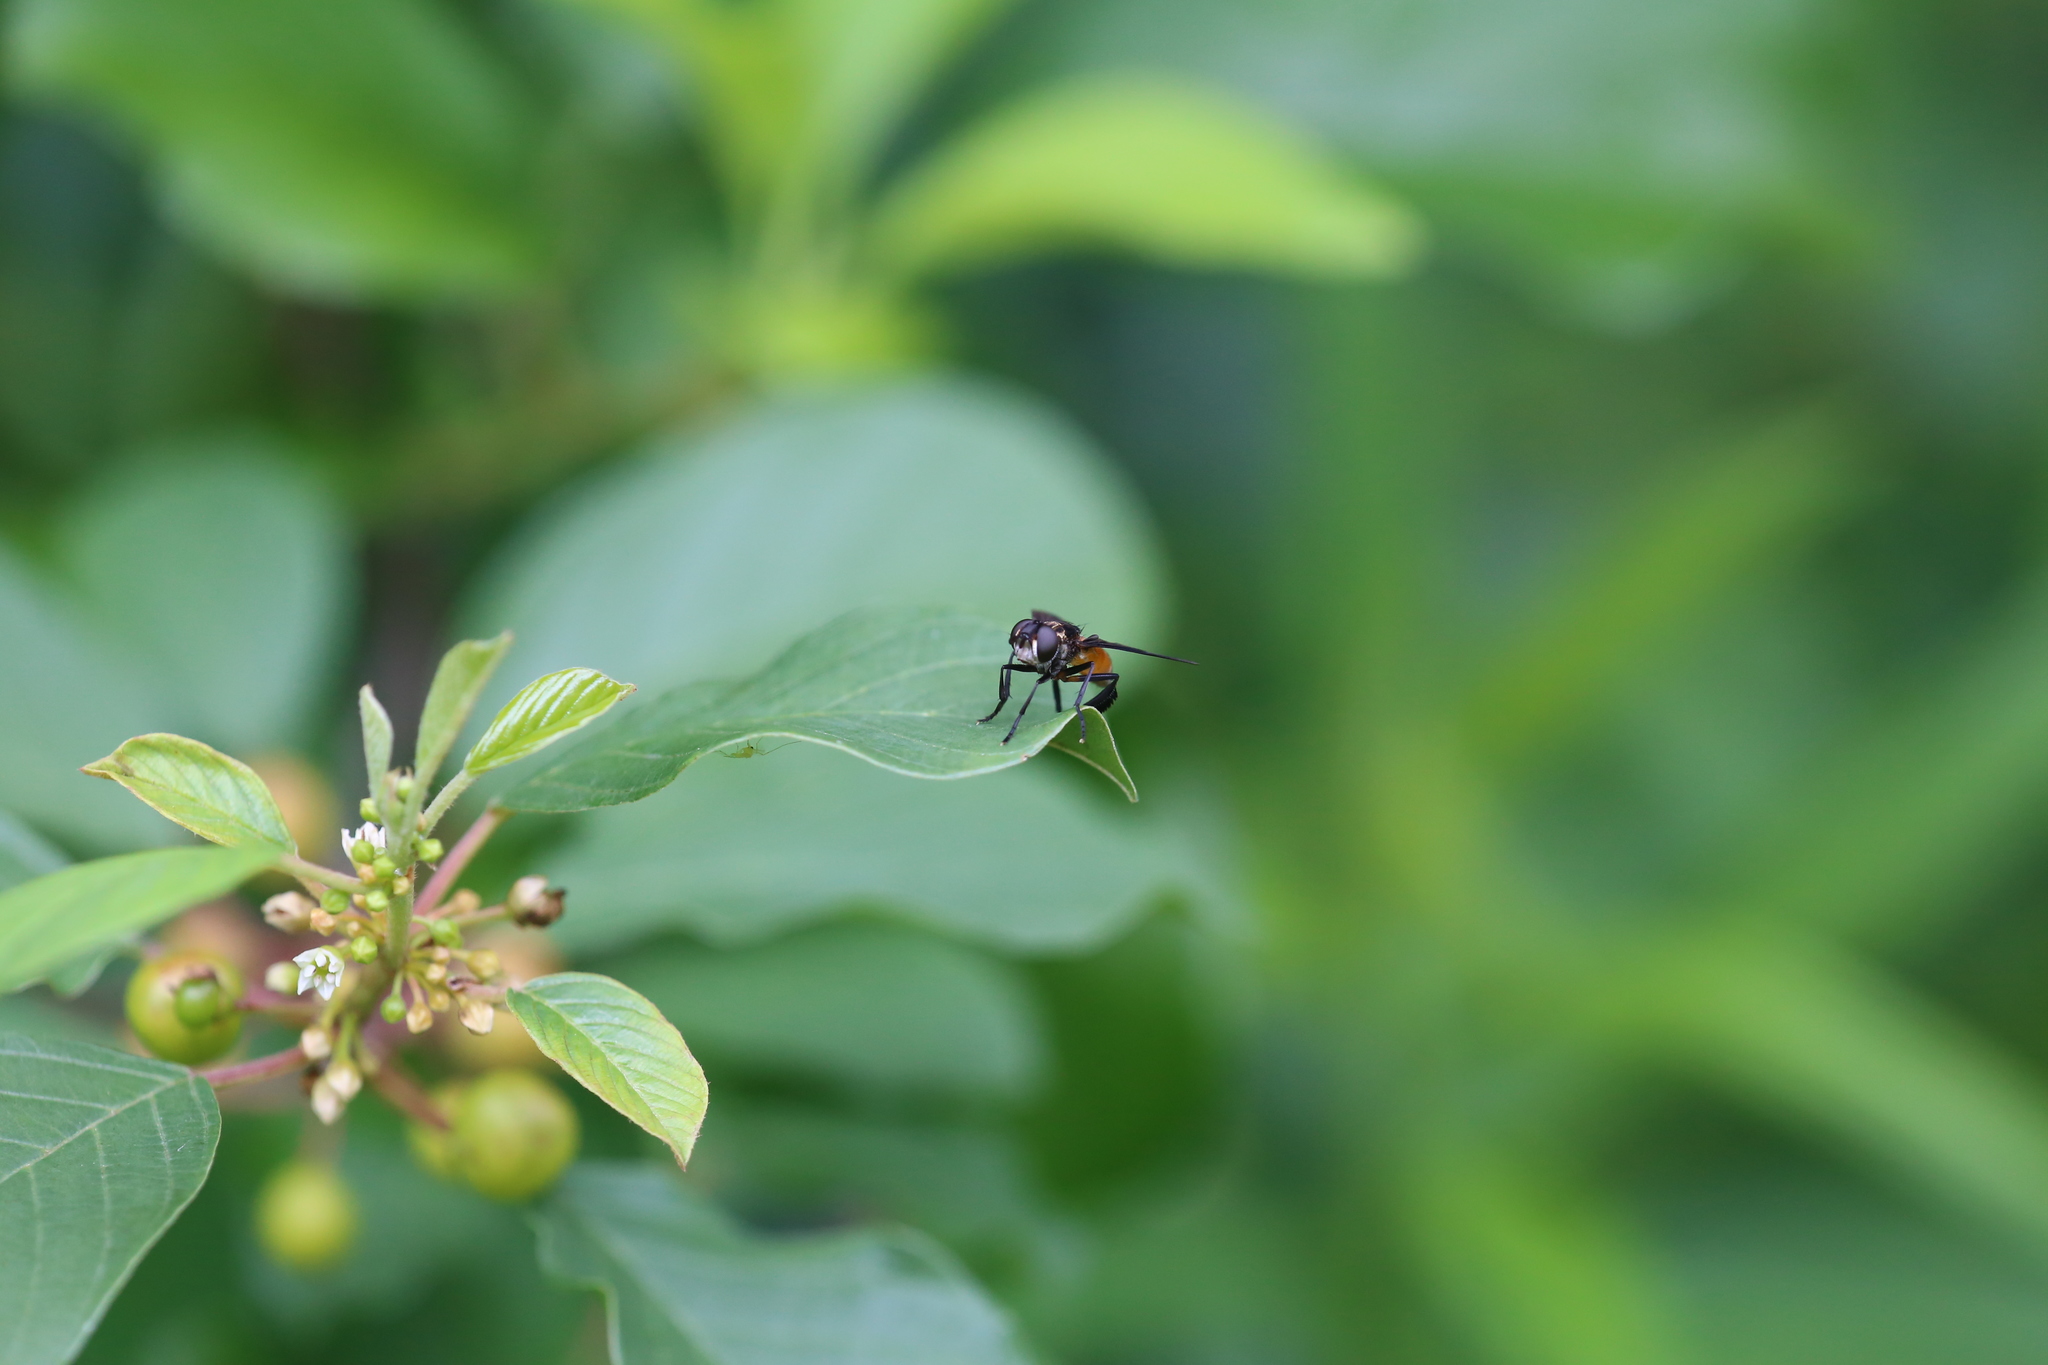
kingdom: Animalia
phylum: Arthropoda
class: Insecta
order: Diptera
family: Tachinidae
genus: Trichopoda
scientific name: Trichopoda pennipes
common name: Tachinid fly
